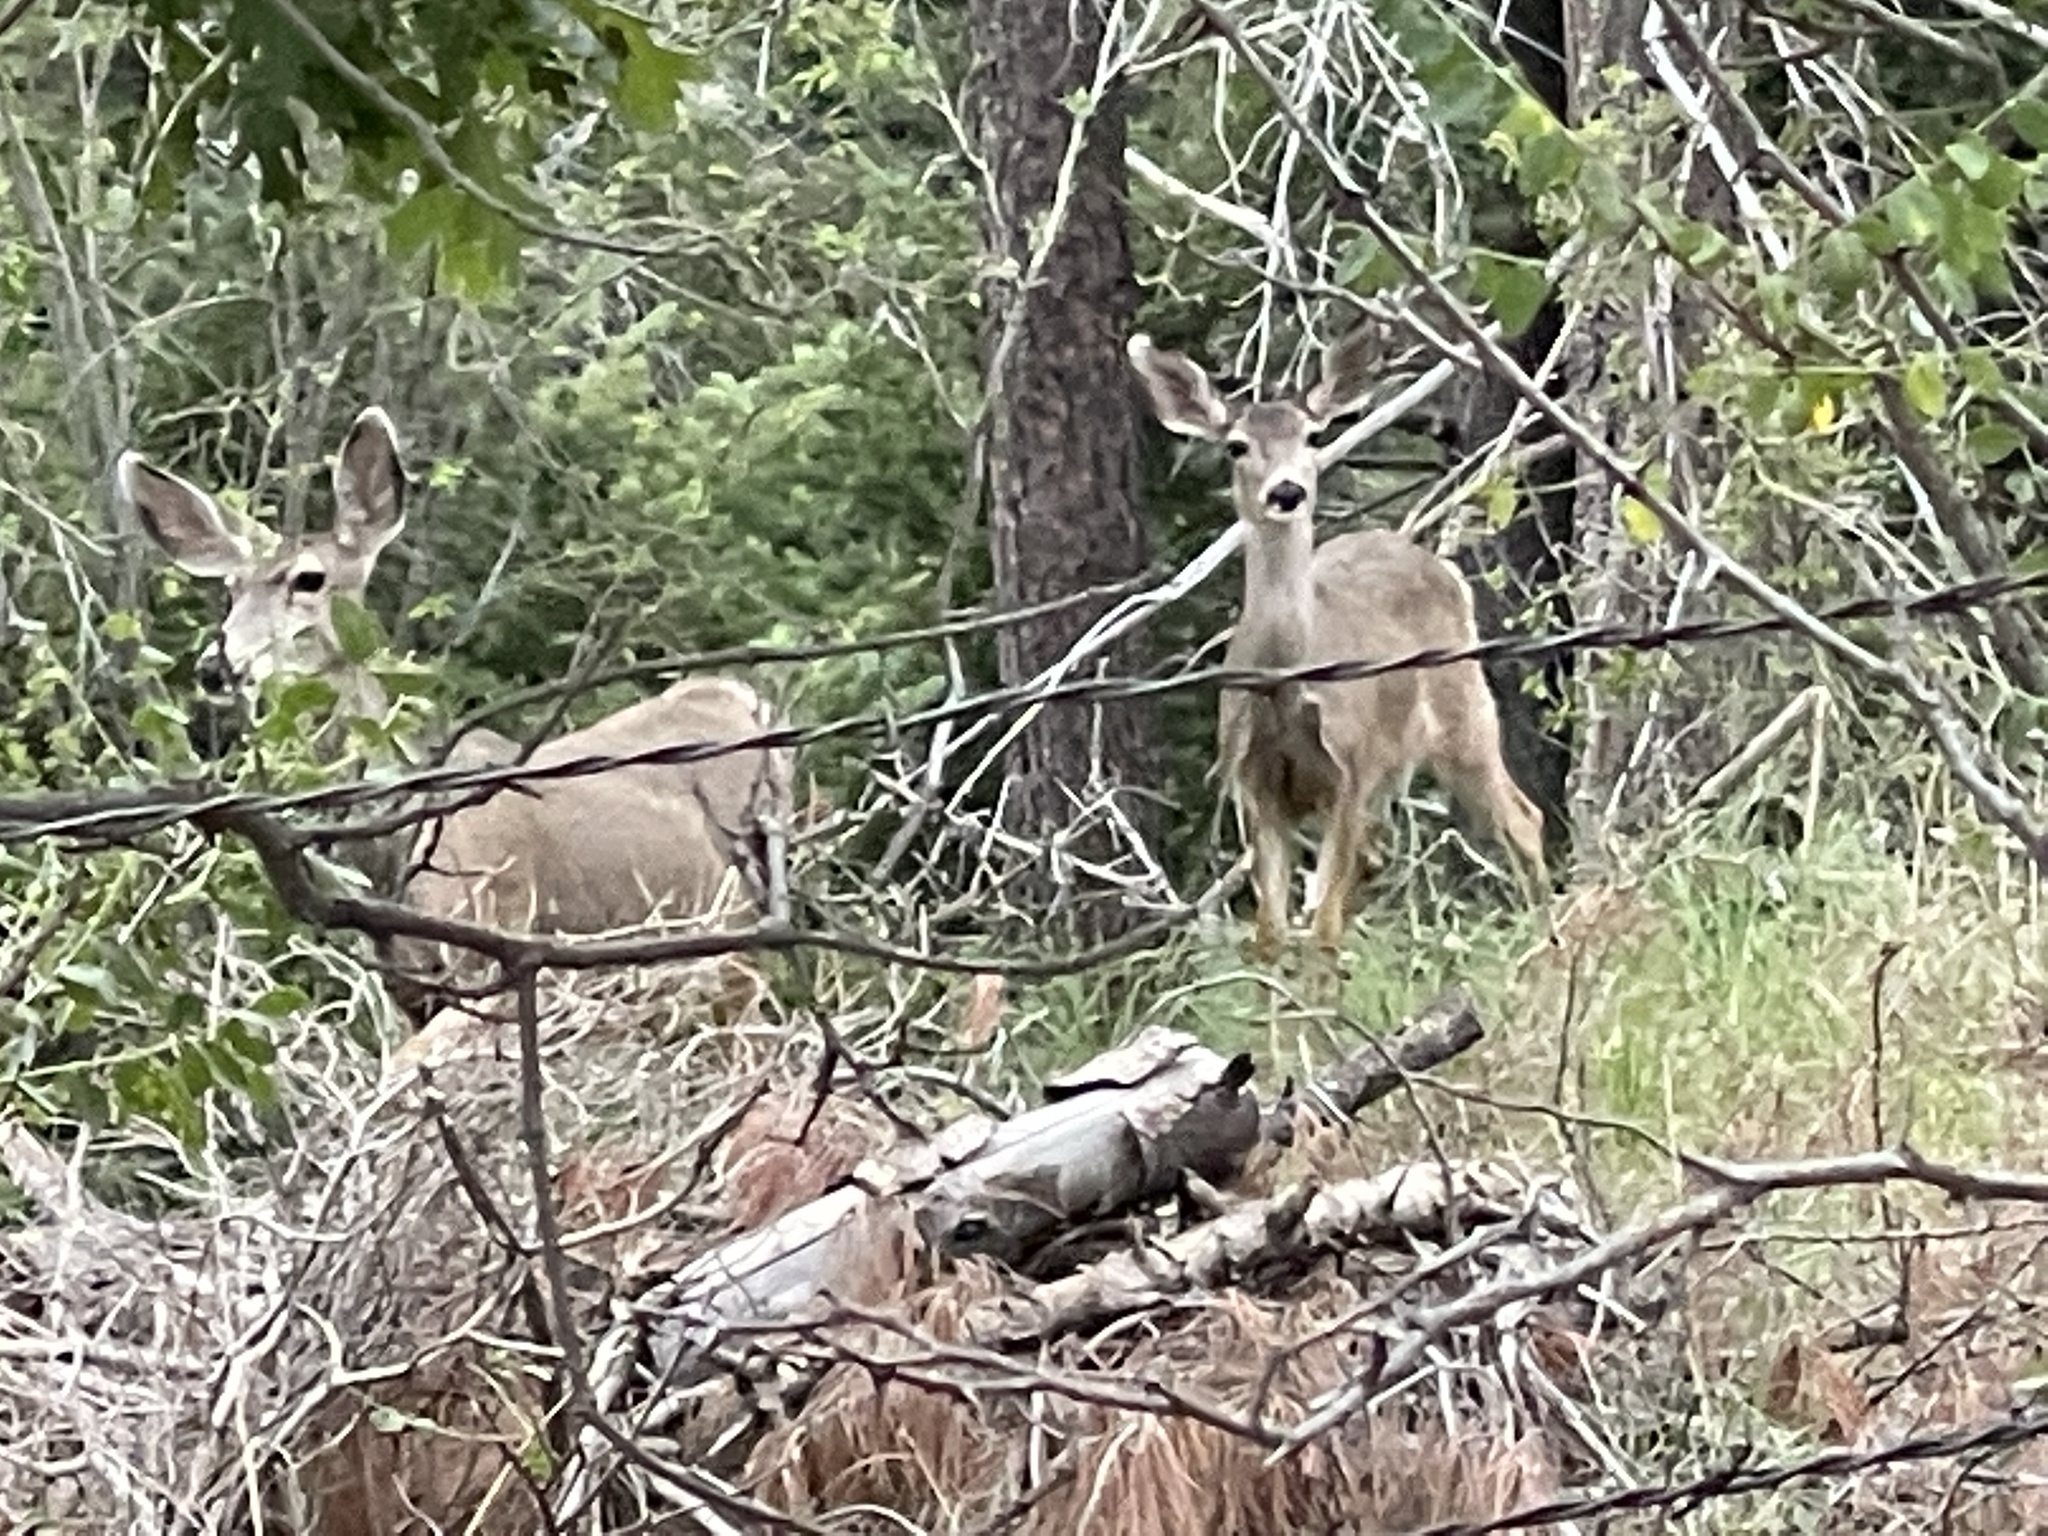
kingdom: Animalia
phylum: Chordata
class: Mammalia
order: Artiodactyla
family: Cervidae
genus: Odocoileus
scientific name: Odocoileus hemionus
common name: Mule deer
